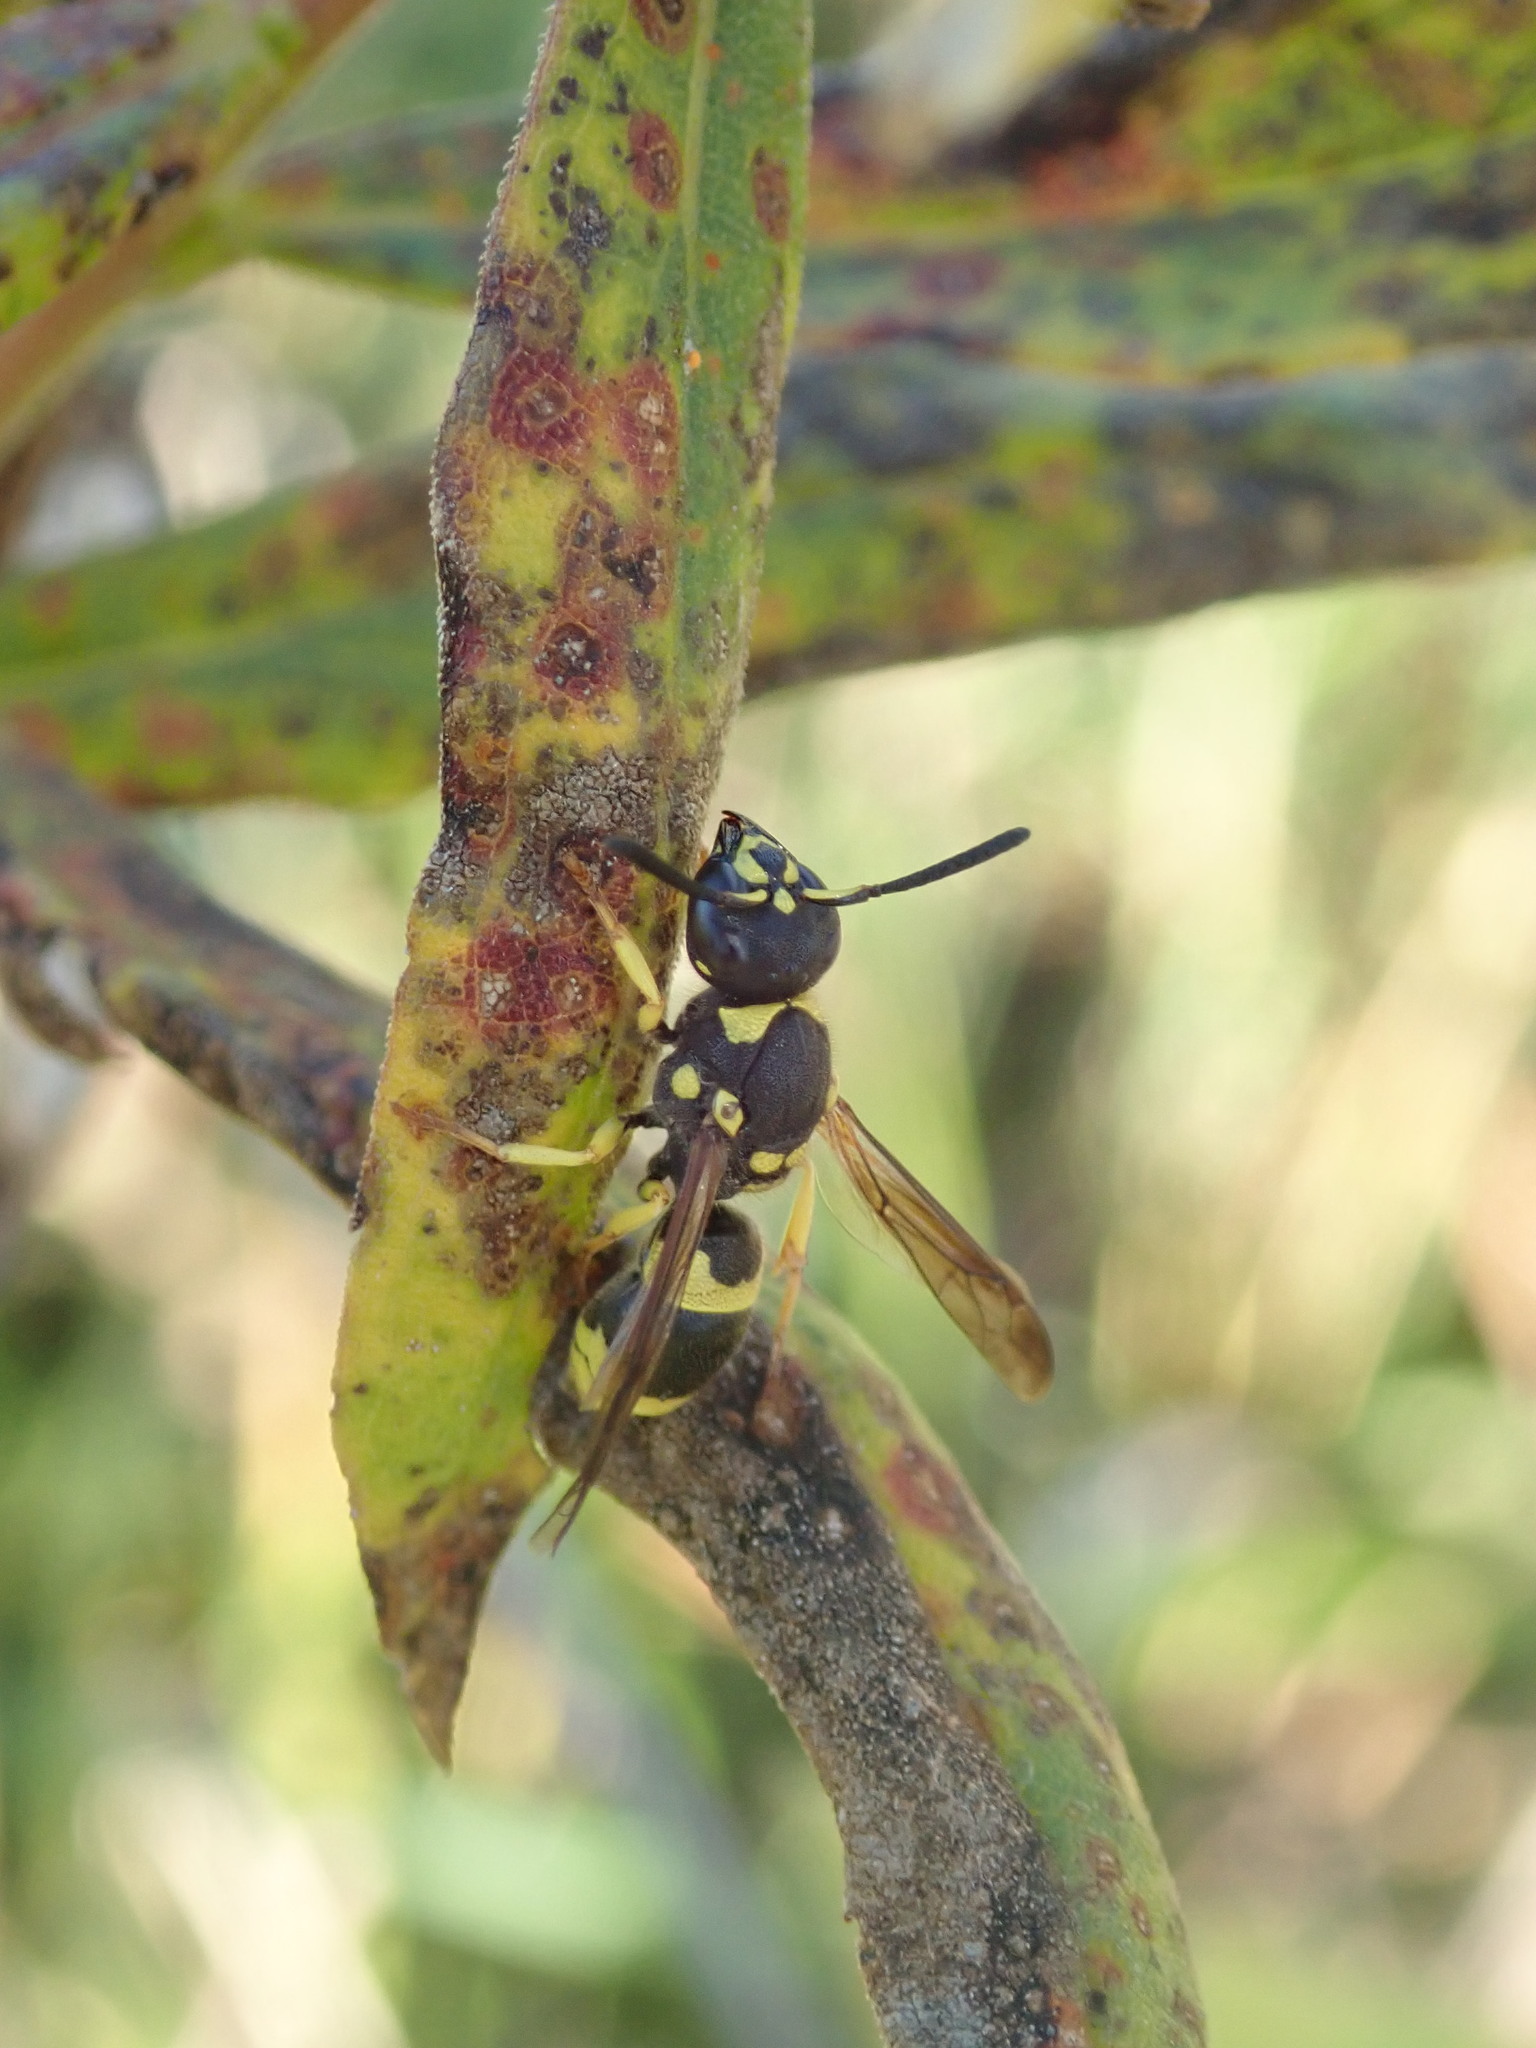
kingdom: Animalia
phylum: Arthropoda
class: Insecta
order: Hymenoptera
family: Vespidae
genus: Ancistrocerus
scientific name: Ancistrocerus gazella
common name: European tube wasp
